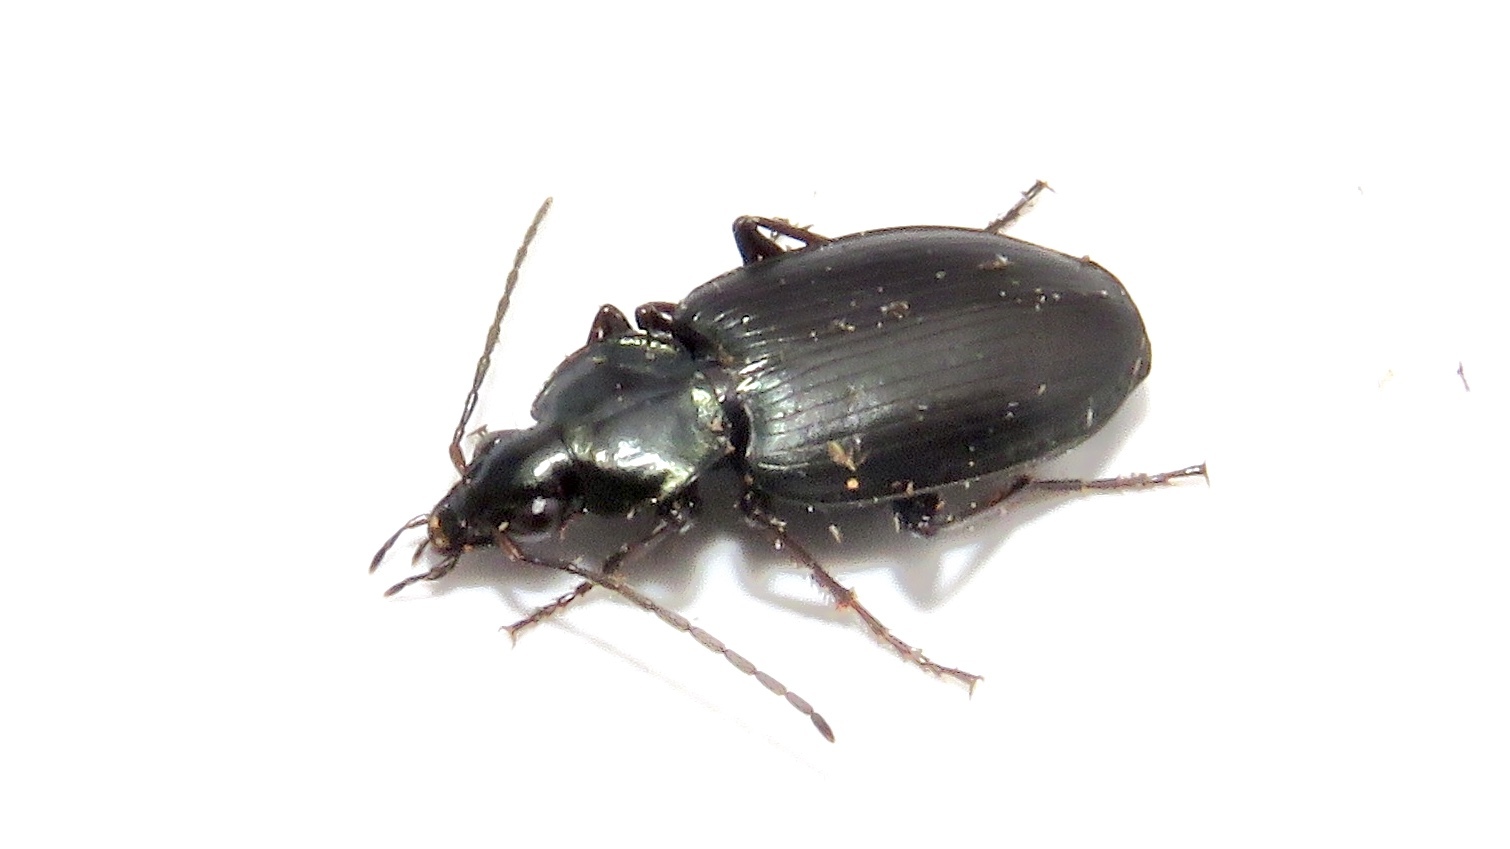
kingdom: Animalia
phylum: Arthropoda
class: Insecta
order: Coleoptera
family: Carabidae
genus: Agonum
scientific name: Agonum placidum
